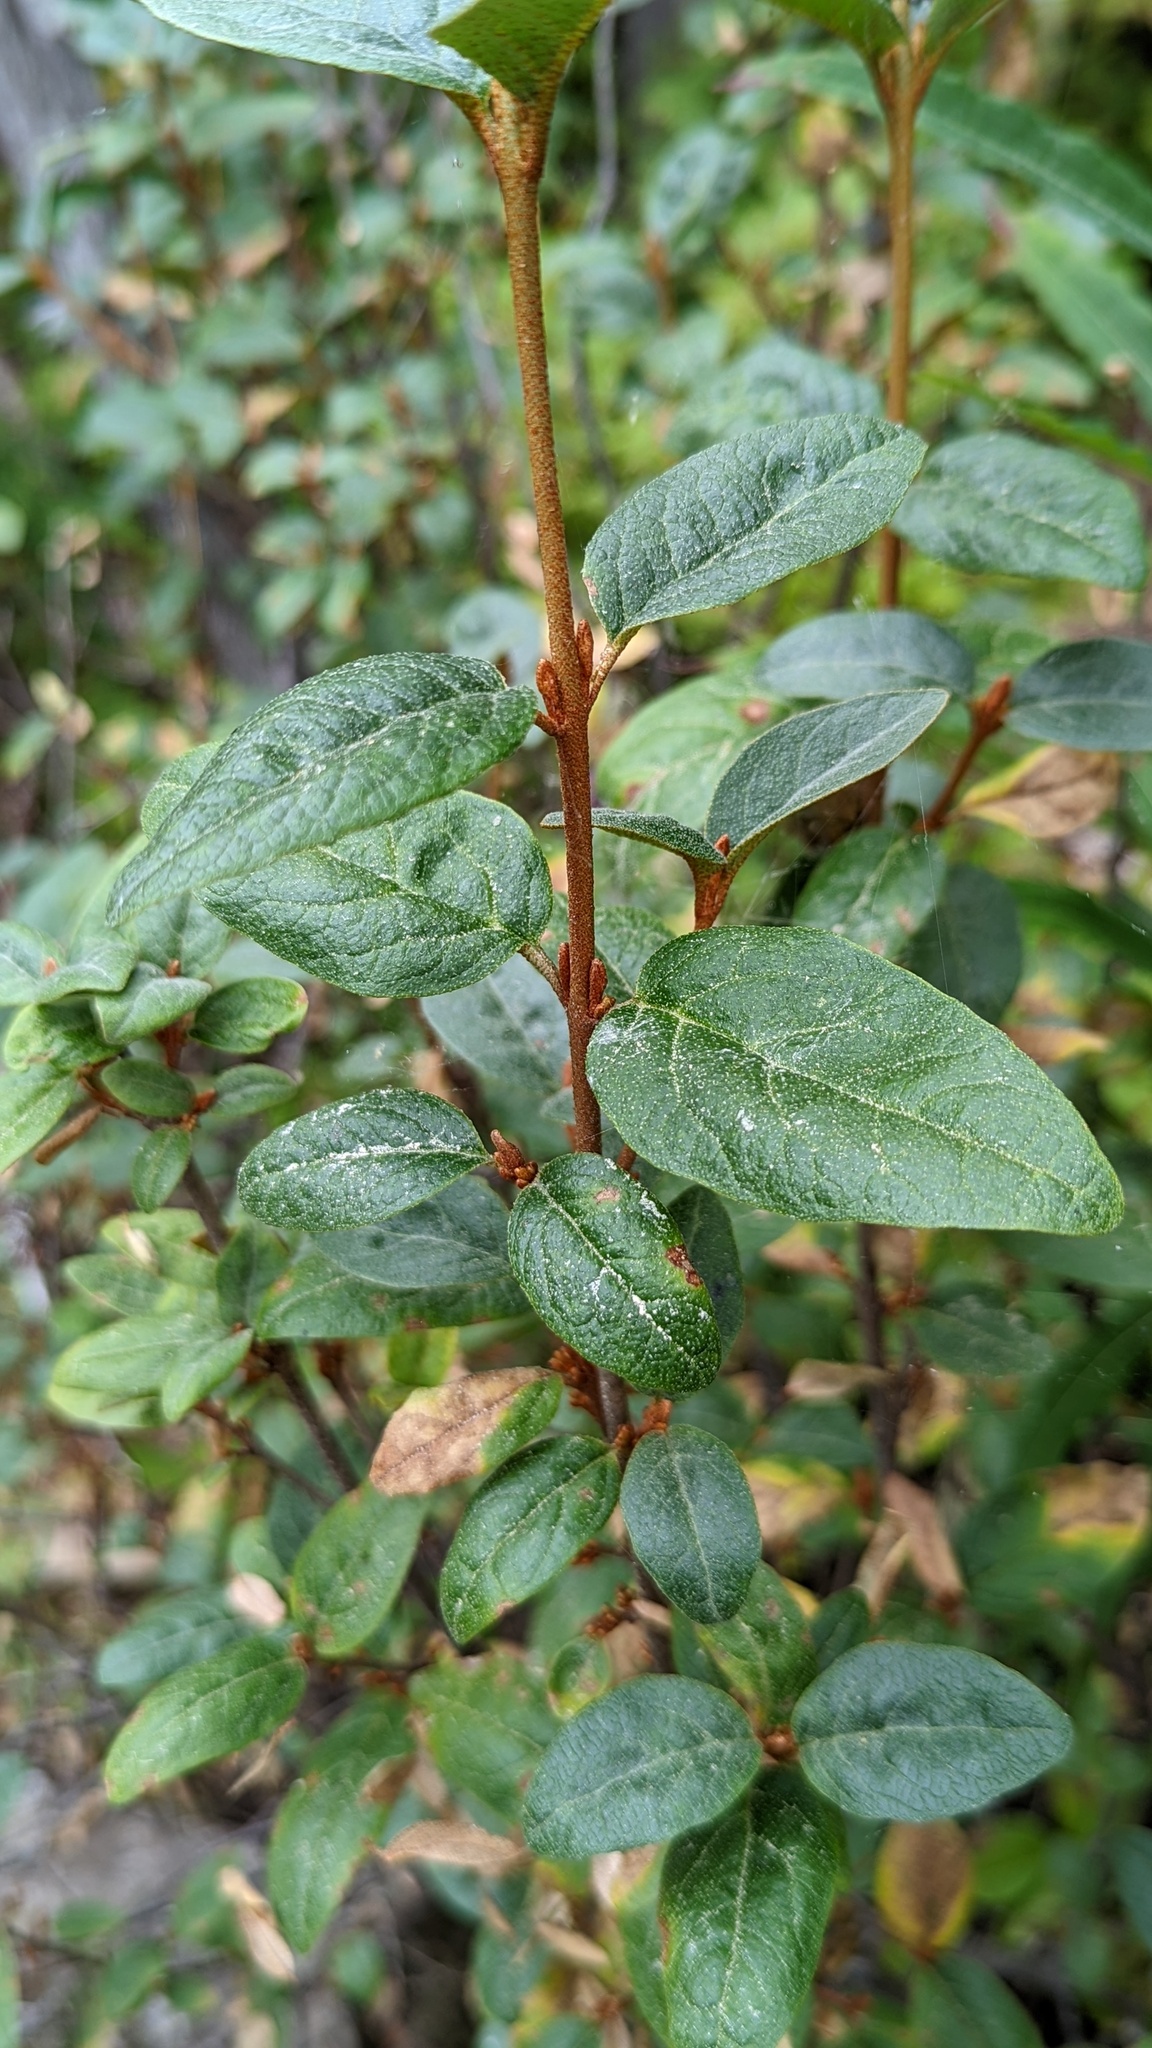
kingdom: Plantae
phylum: Tracheophyta
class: Magnoliopsida
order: Rosales
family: Elaeagnaceae
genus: Shepherdia
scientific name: Shepherdia canadensis
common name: Soapberry
